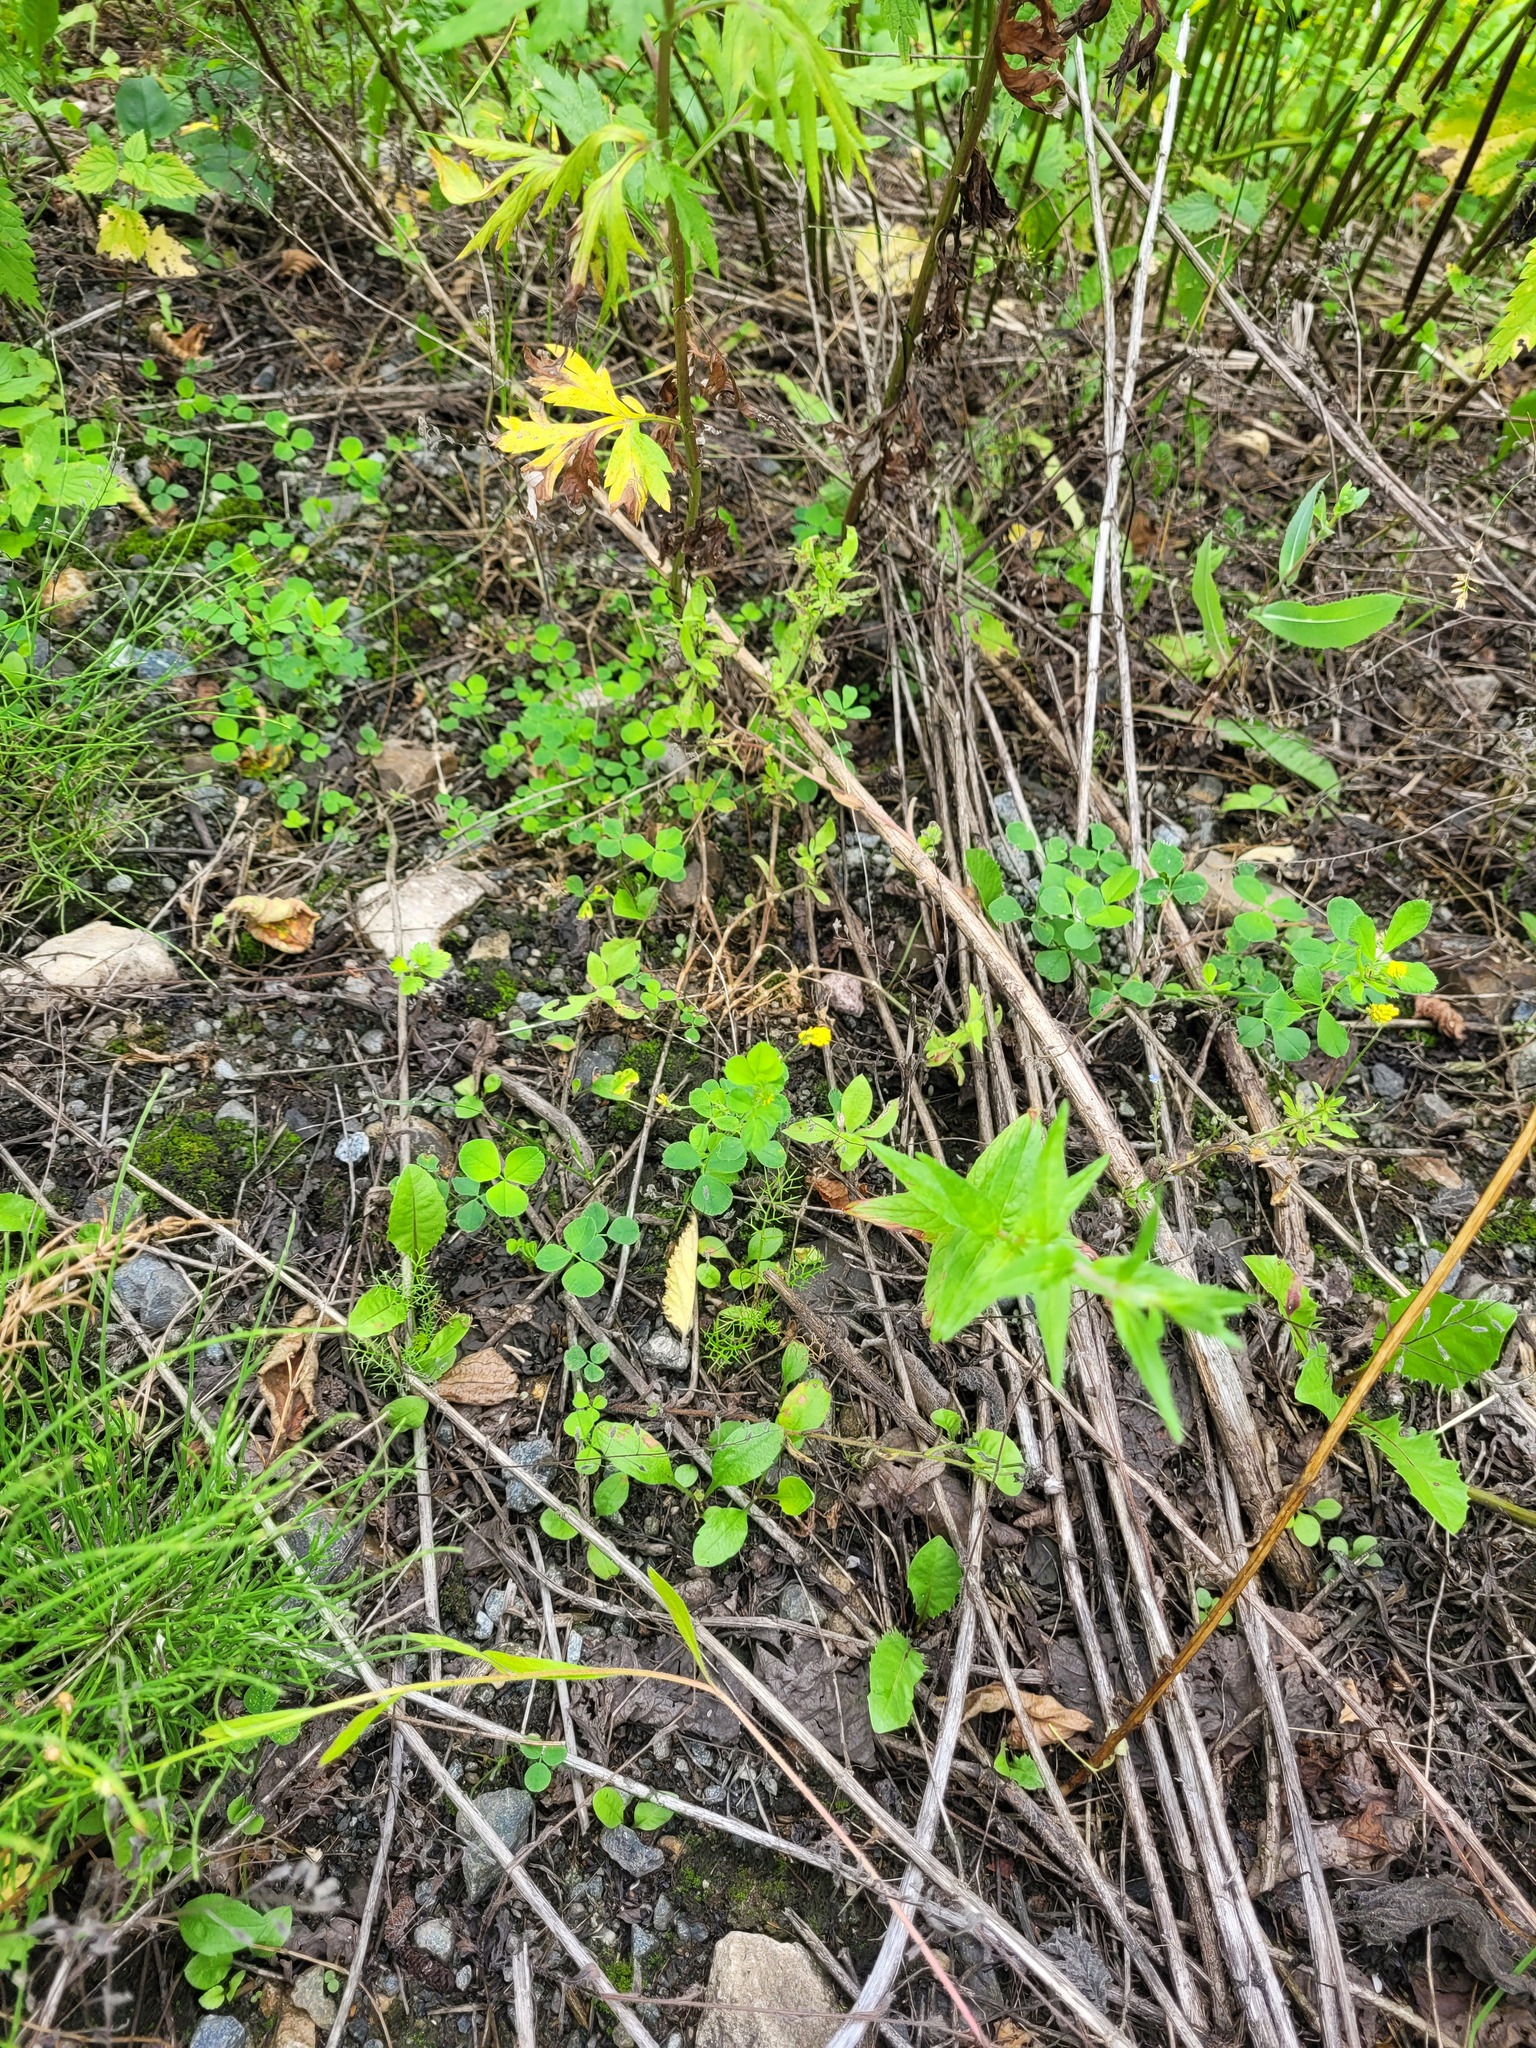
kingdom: Plantae
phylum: Tracheophyta
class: Magnoliopsida
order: Fabales
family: Fabaceae
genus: Medicago
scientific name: Medicago lupulina
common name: Black medick
